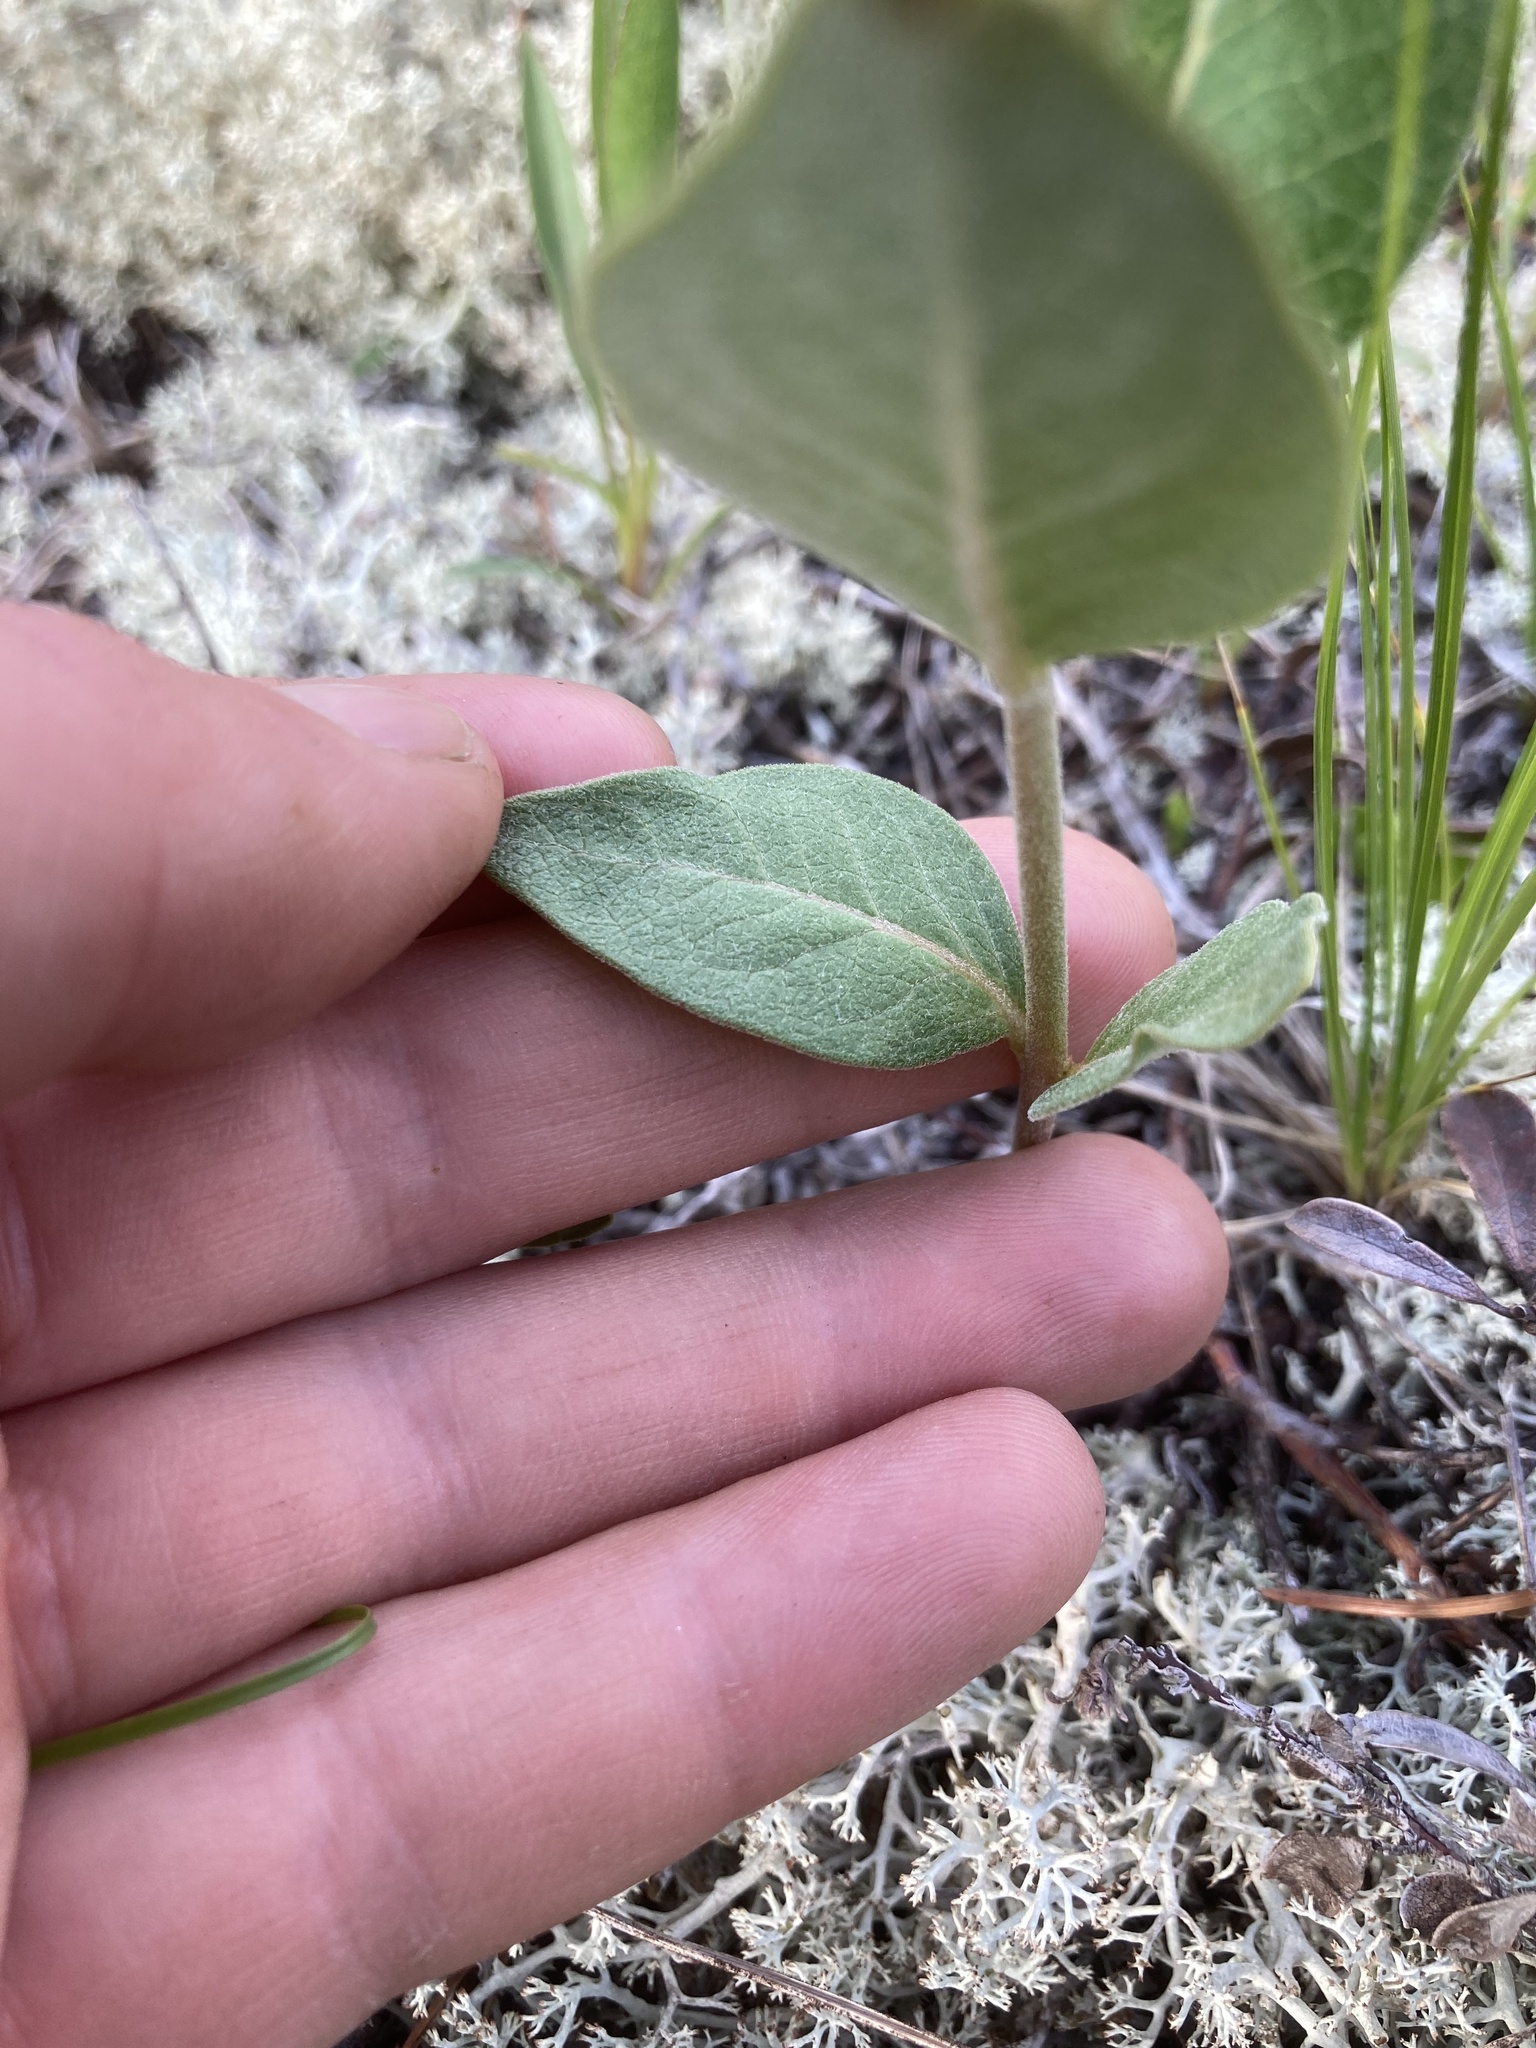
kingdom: Plantae
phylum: Tracheophyta
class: Magnoliopsida
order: Gentianales
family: Apocynaceae
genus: Asclepias
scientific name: Asclepias ovalifolia
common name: Dwarf milkweed
